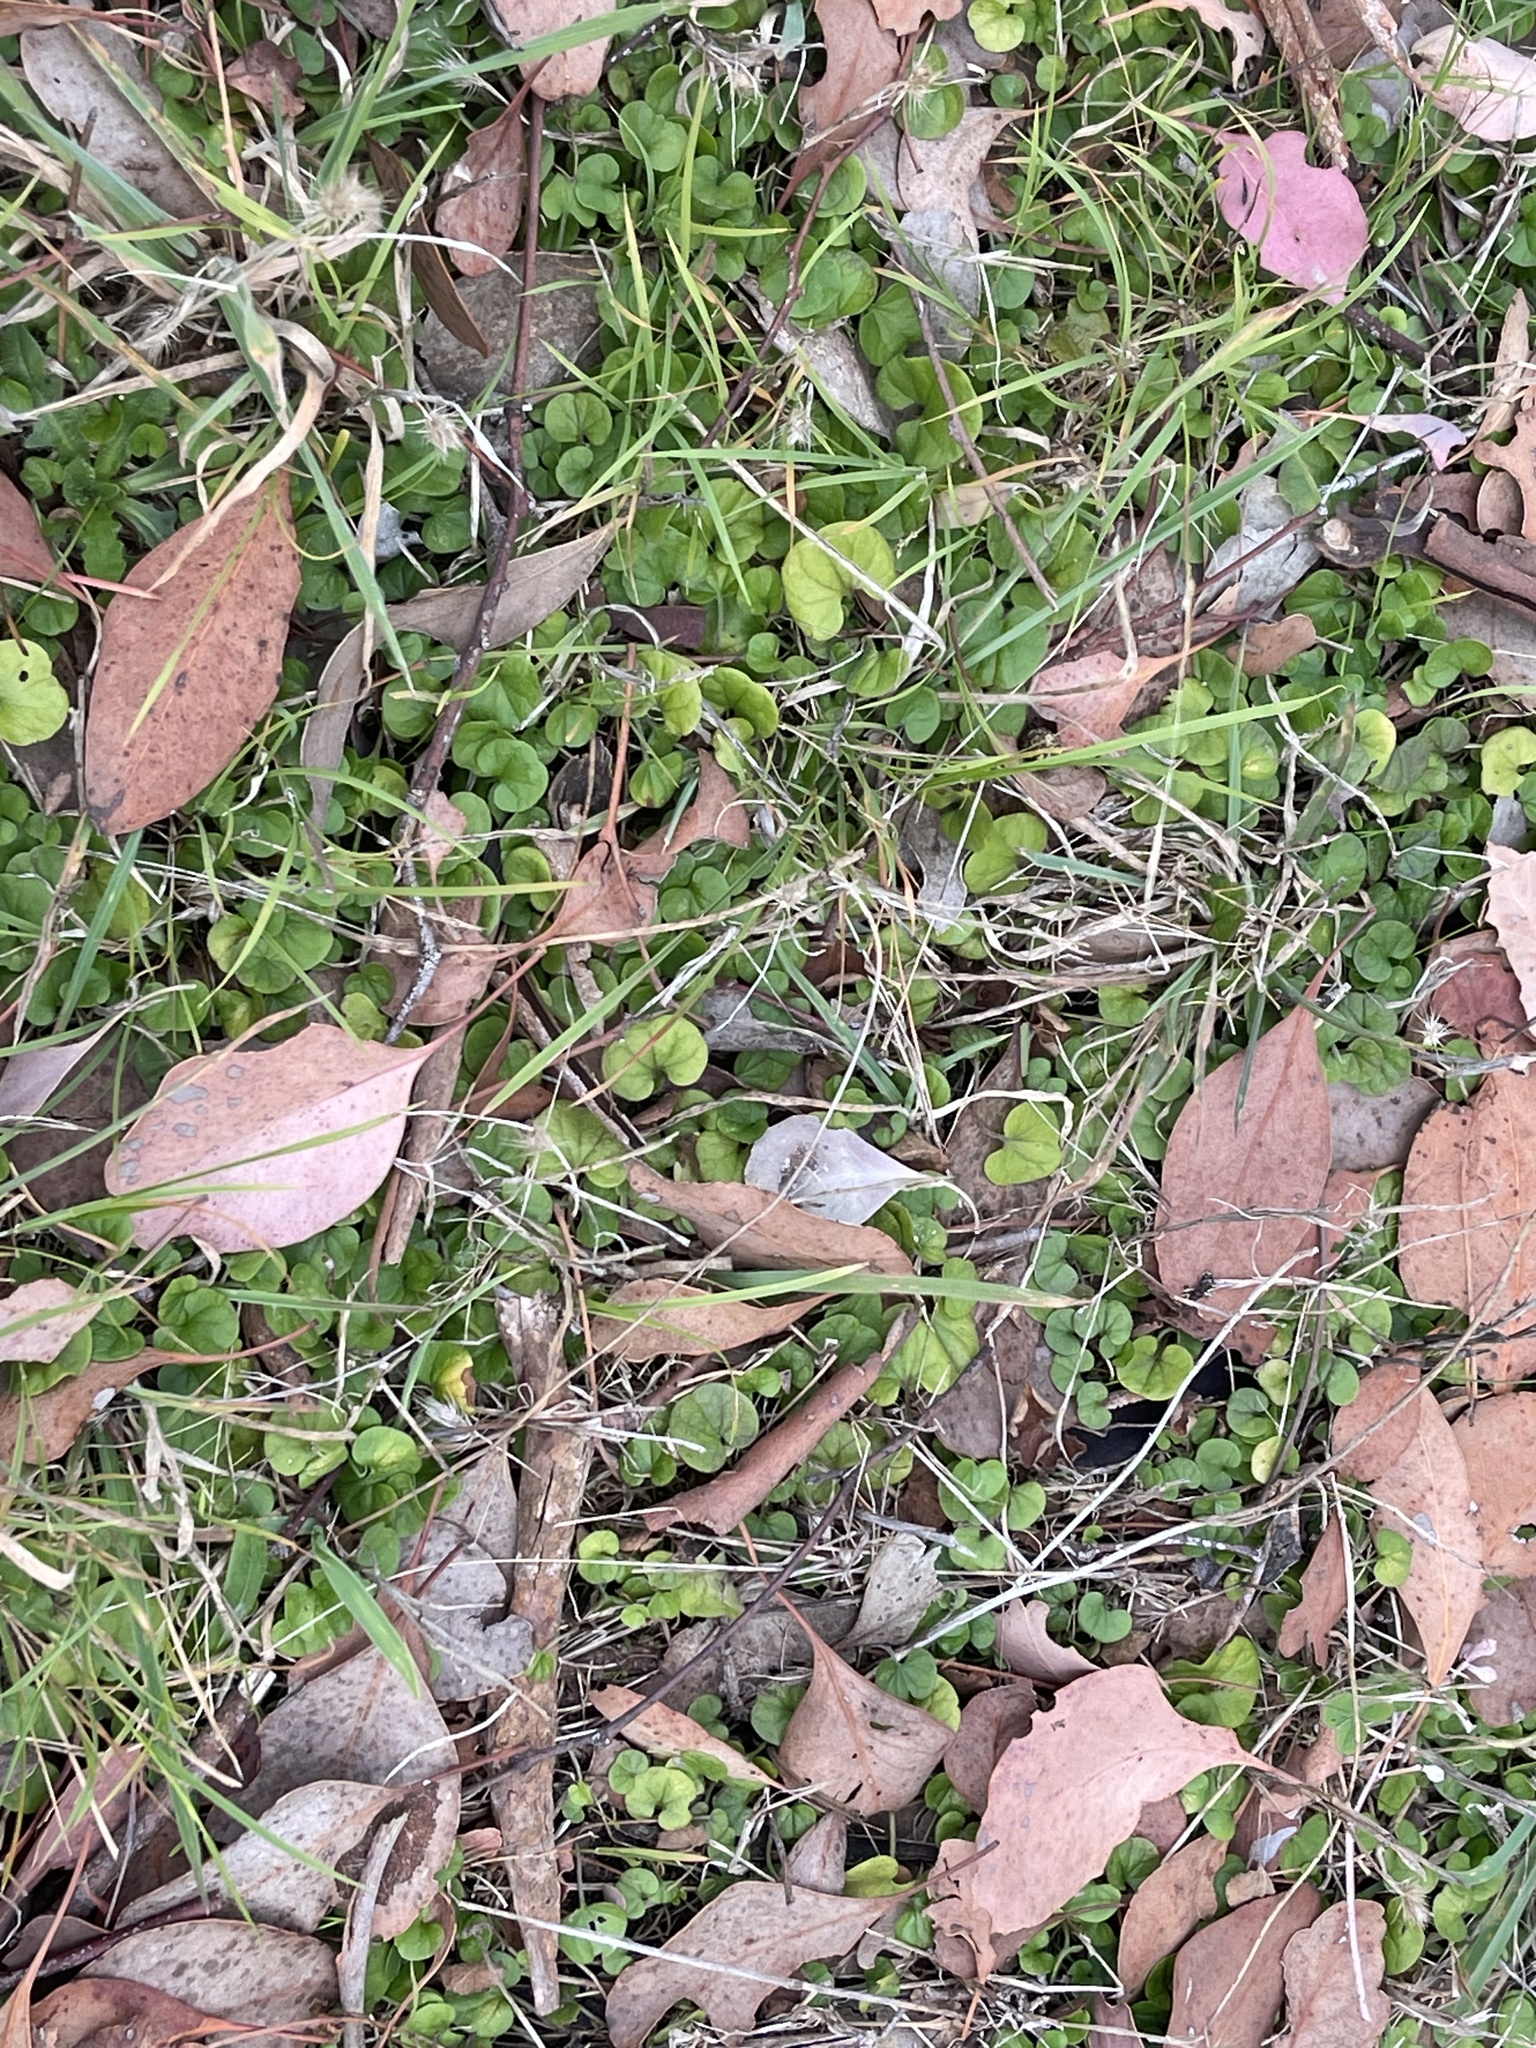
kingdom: Plantae
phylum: Tracheophyta
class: Magnoliopsida
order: Solanales
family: Convolvulaceae
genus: Dichondra
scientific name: Dichondra repens
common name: Kidneyweed
